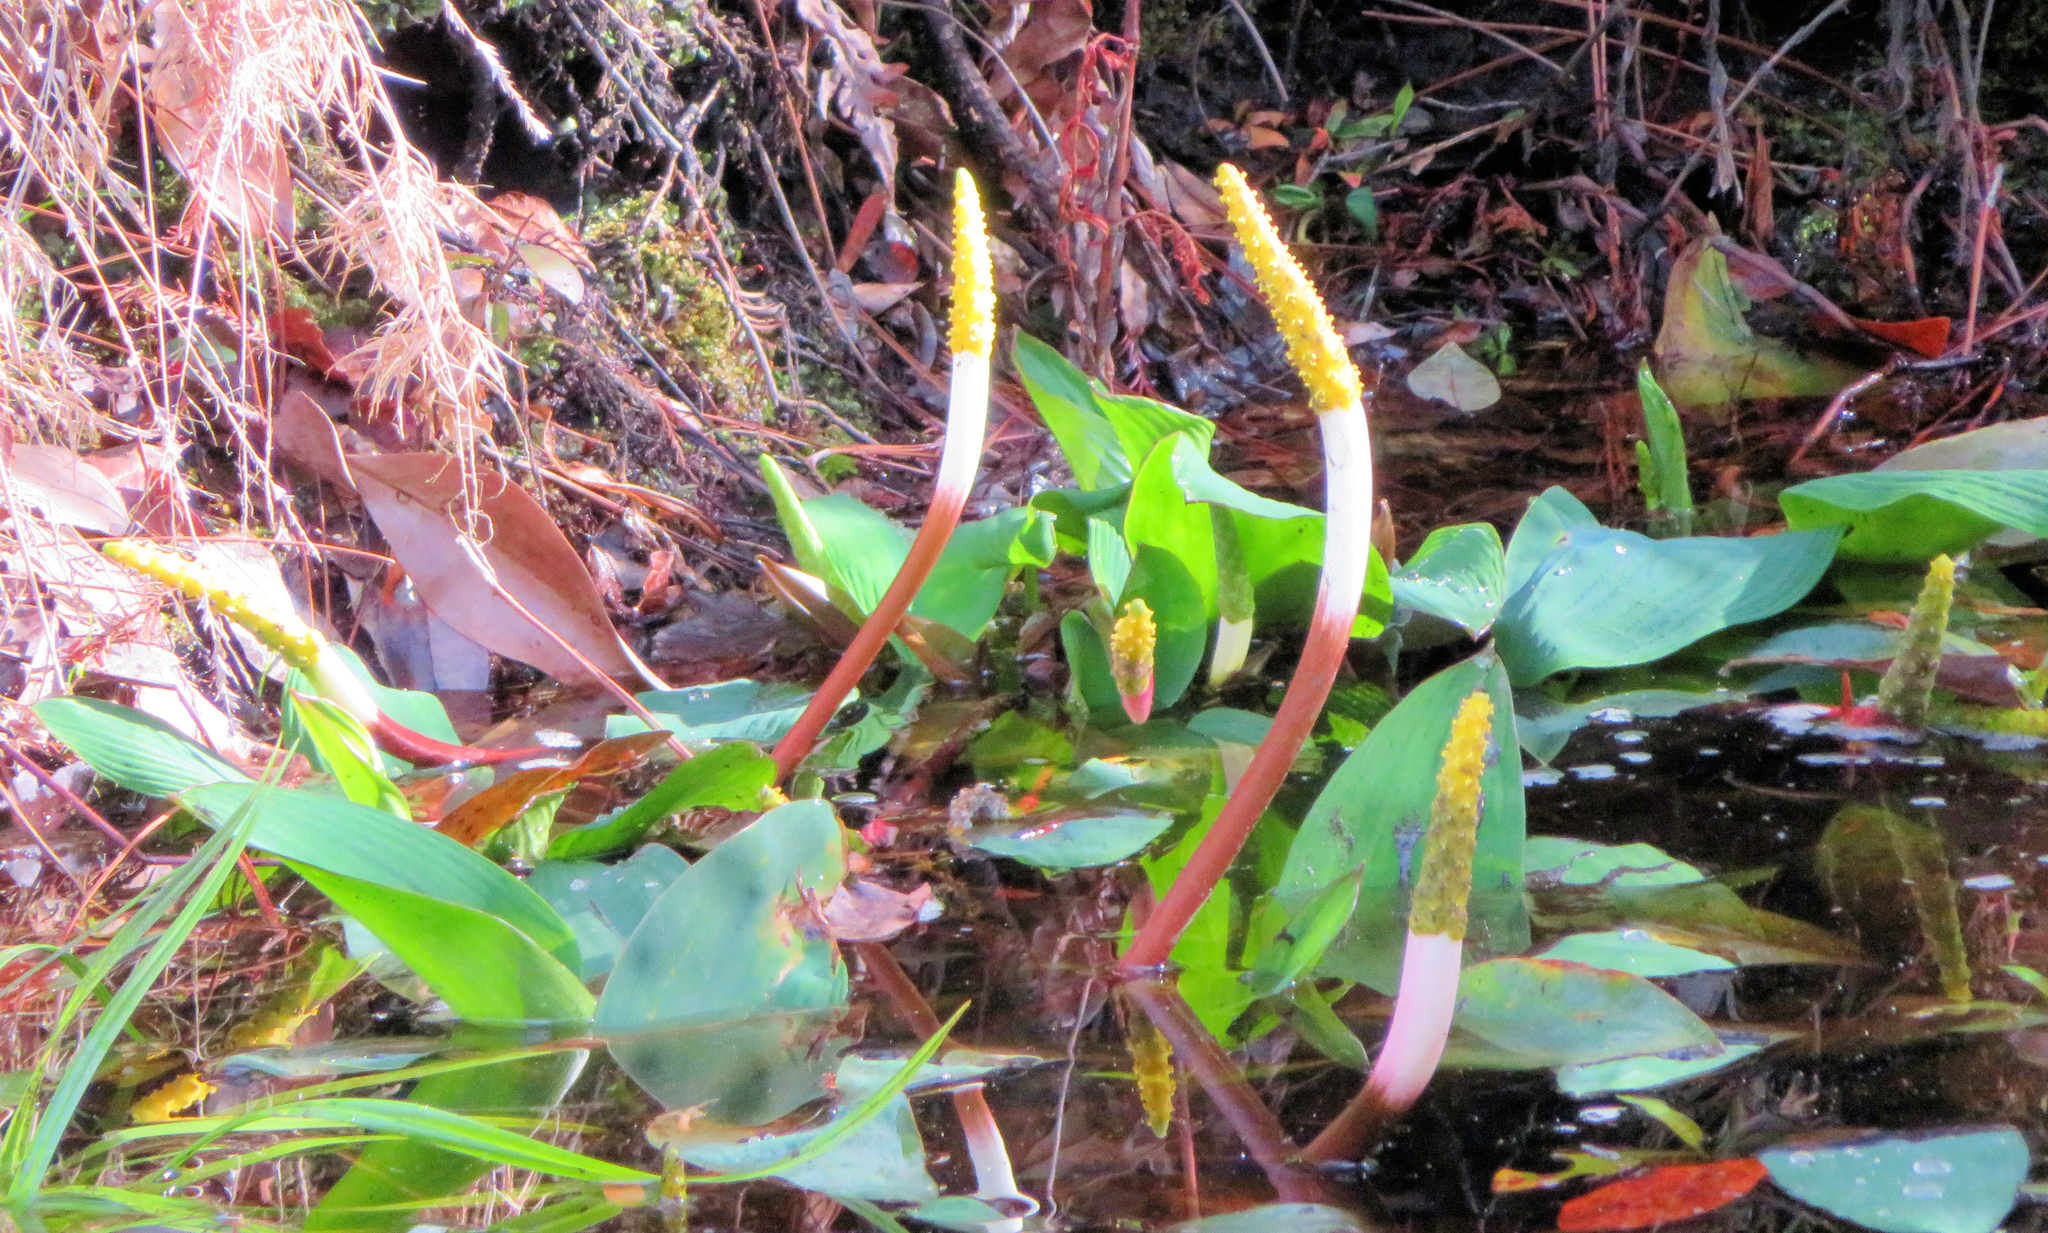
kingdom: Plantae
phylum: Tracheophyta
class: Liliopsida
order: Alismatales
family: Araceae
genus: Orontium
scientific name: Orontium aquaticum
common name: Golden-club
